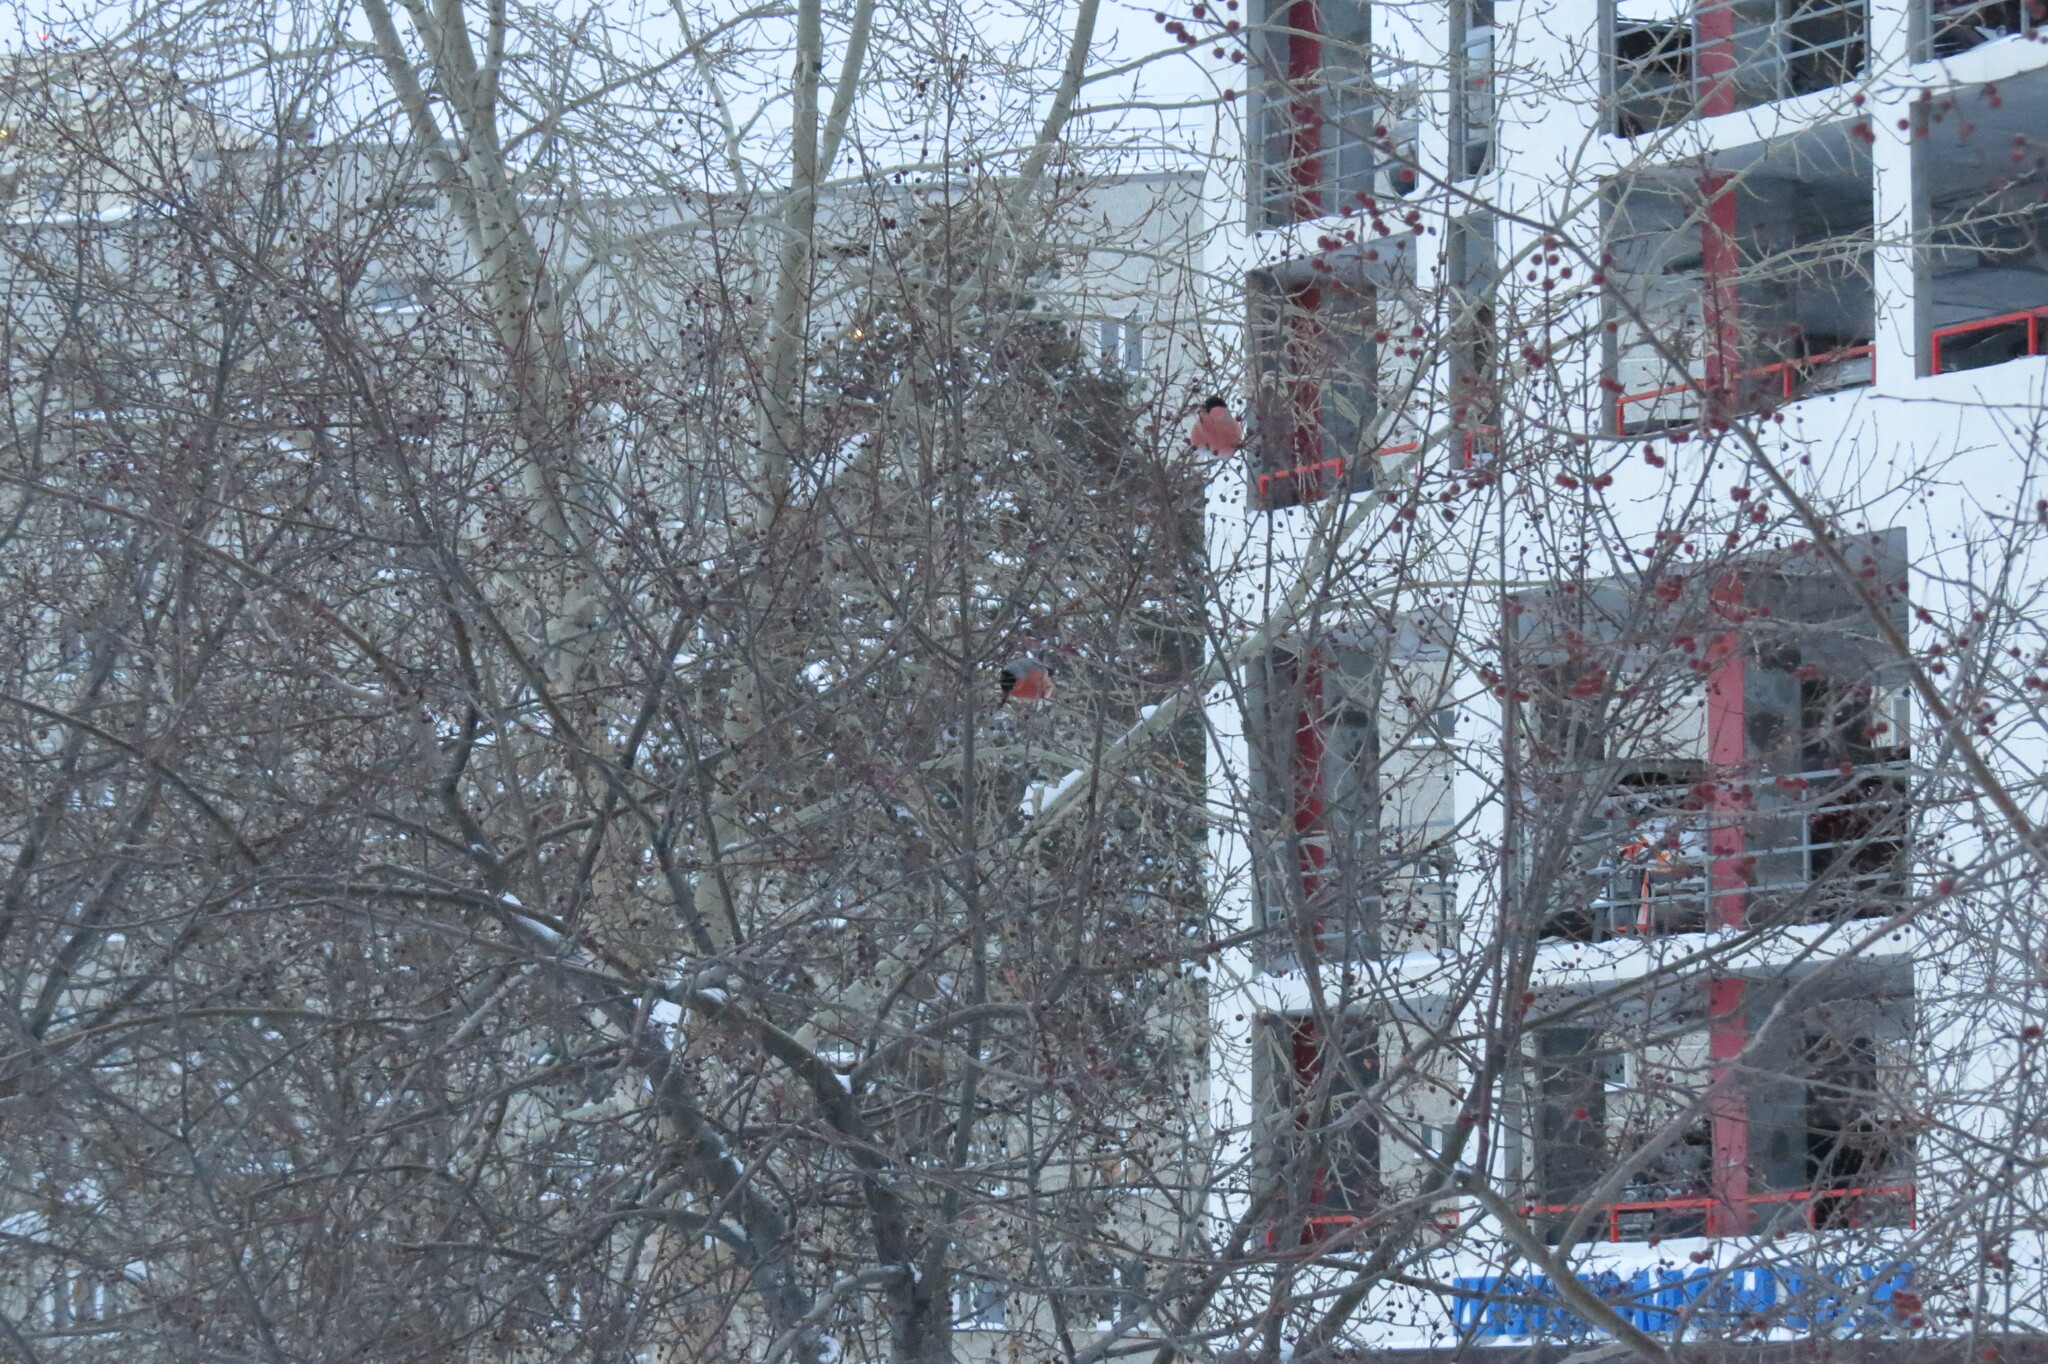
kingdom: Animalia
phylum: Chordata
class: Aves
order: Passeriformes
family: Fringillidae
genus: Pyrrhula
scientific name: Pyrrhula pyrrhula
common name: Eurasian bullfinch
